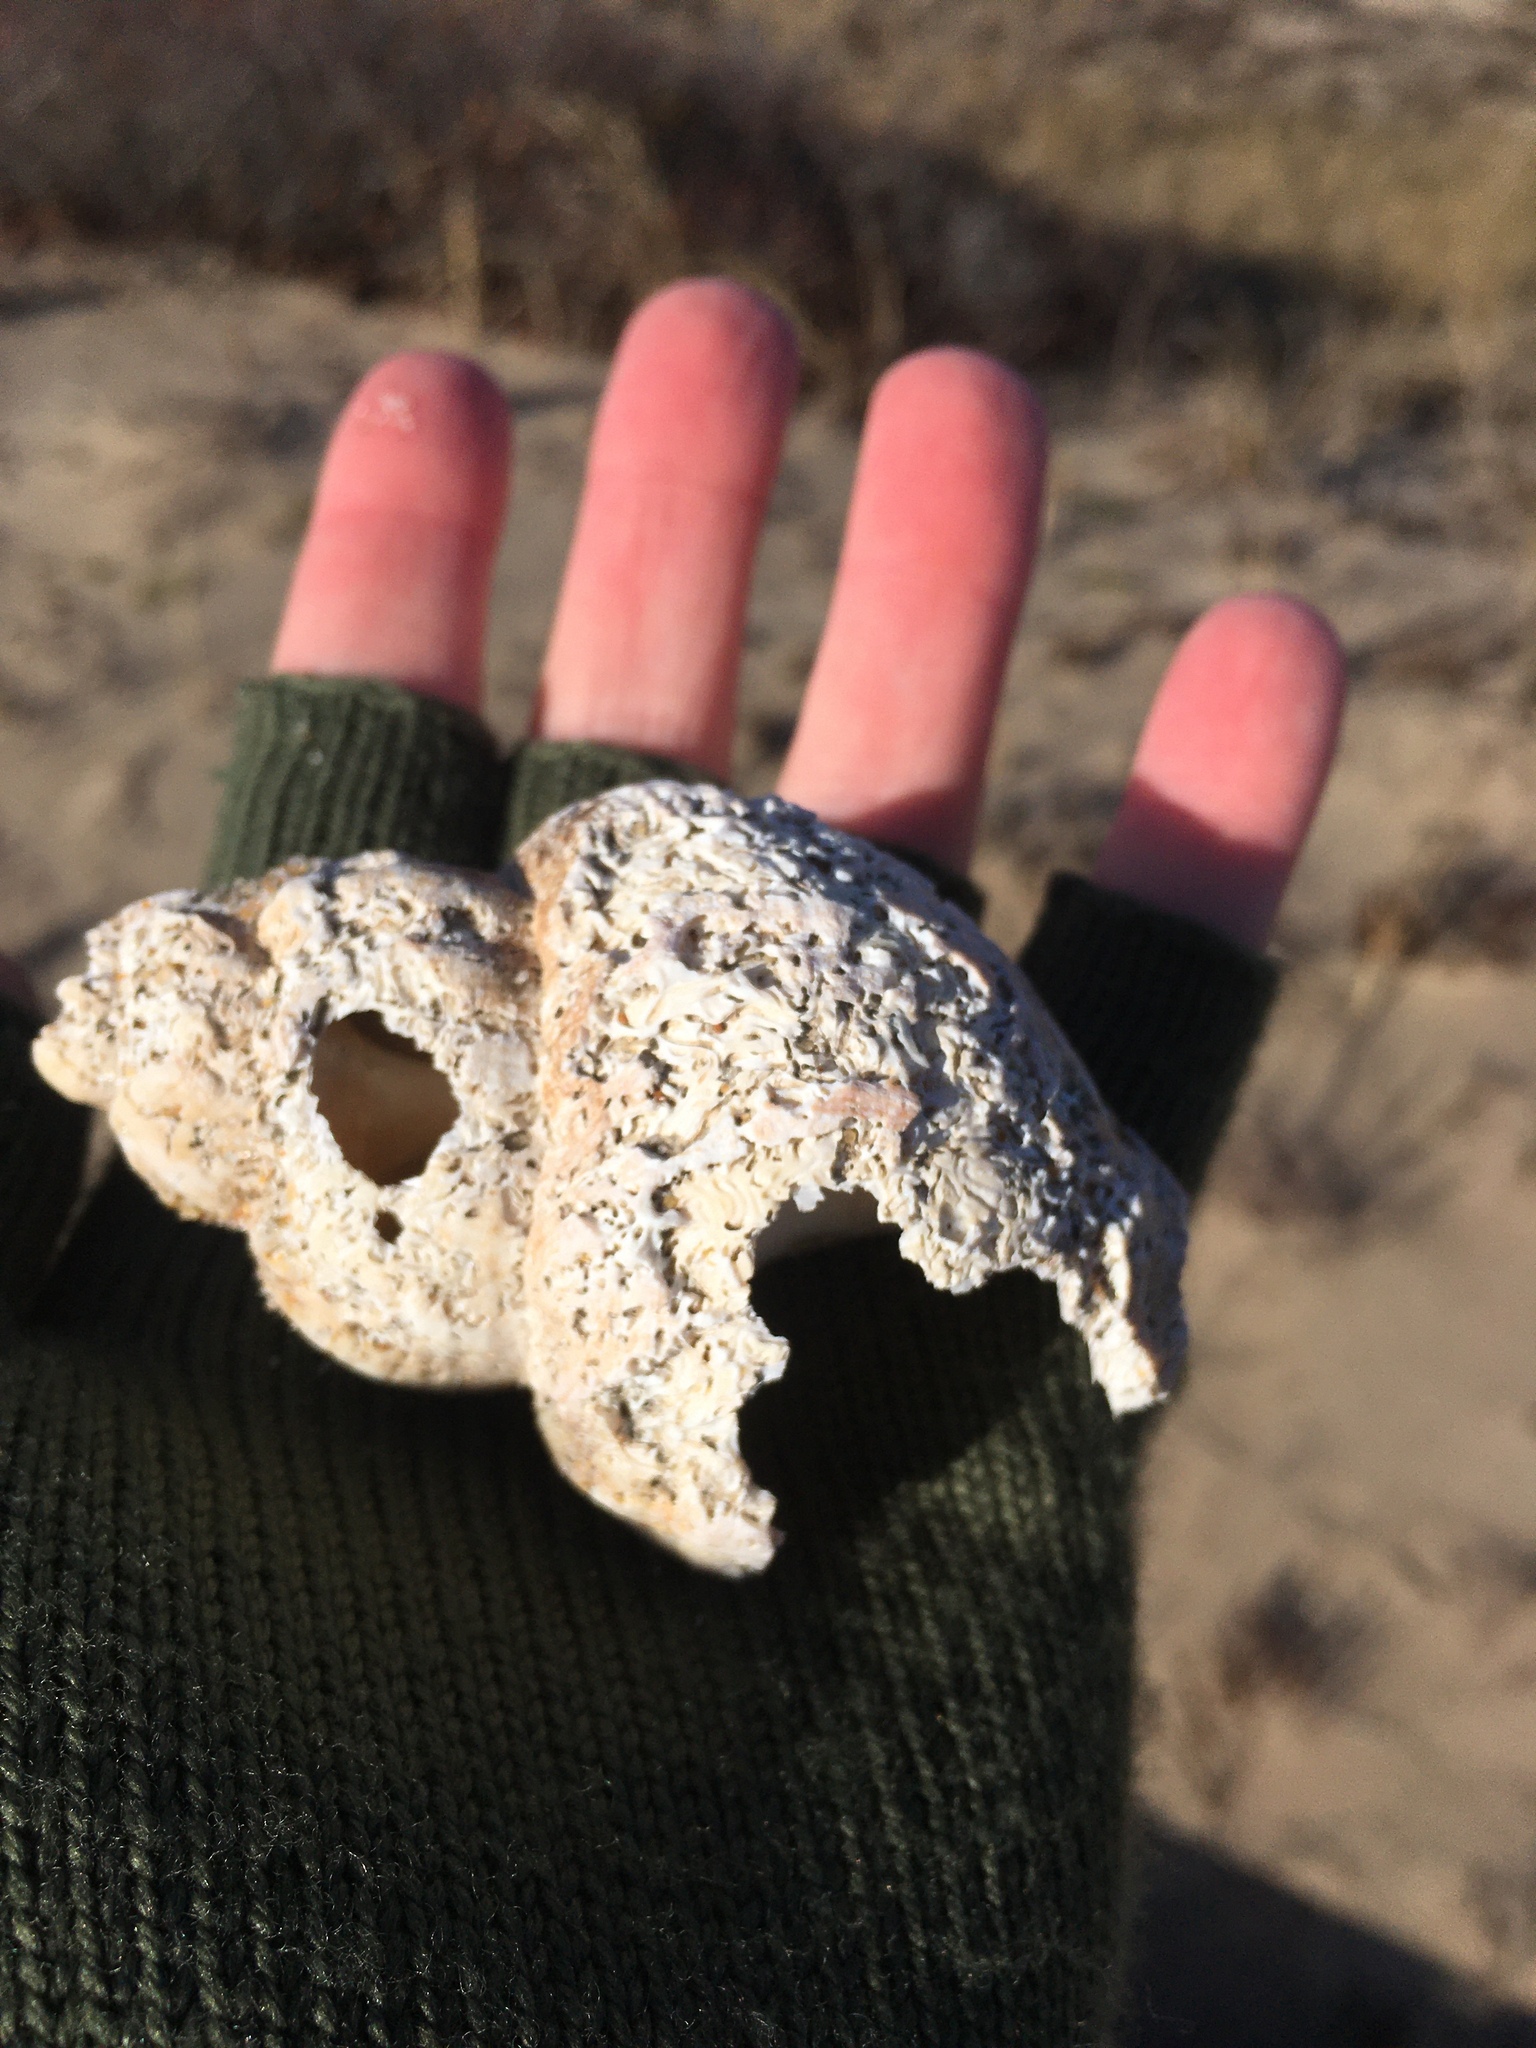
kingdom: Animalia
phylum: Mollusca
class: Gastropoda
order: Neogastropoda
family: Buccinidae
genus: Buccinum
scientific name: Buccinum undatum
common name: Common whelk
